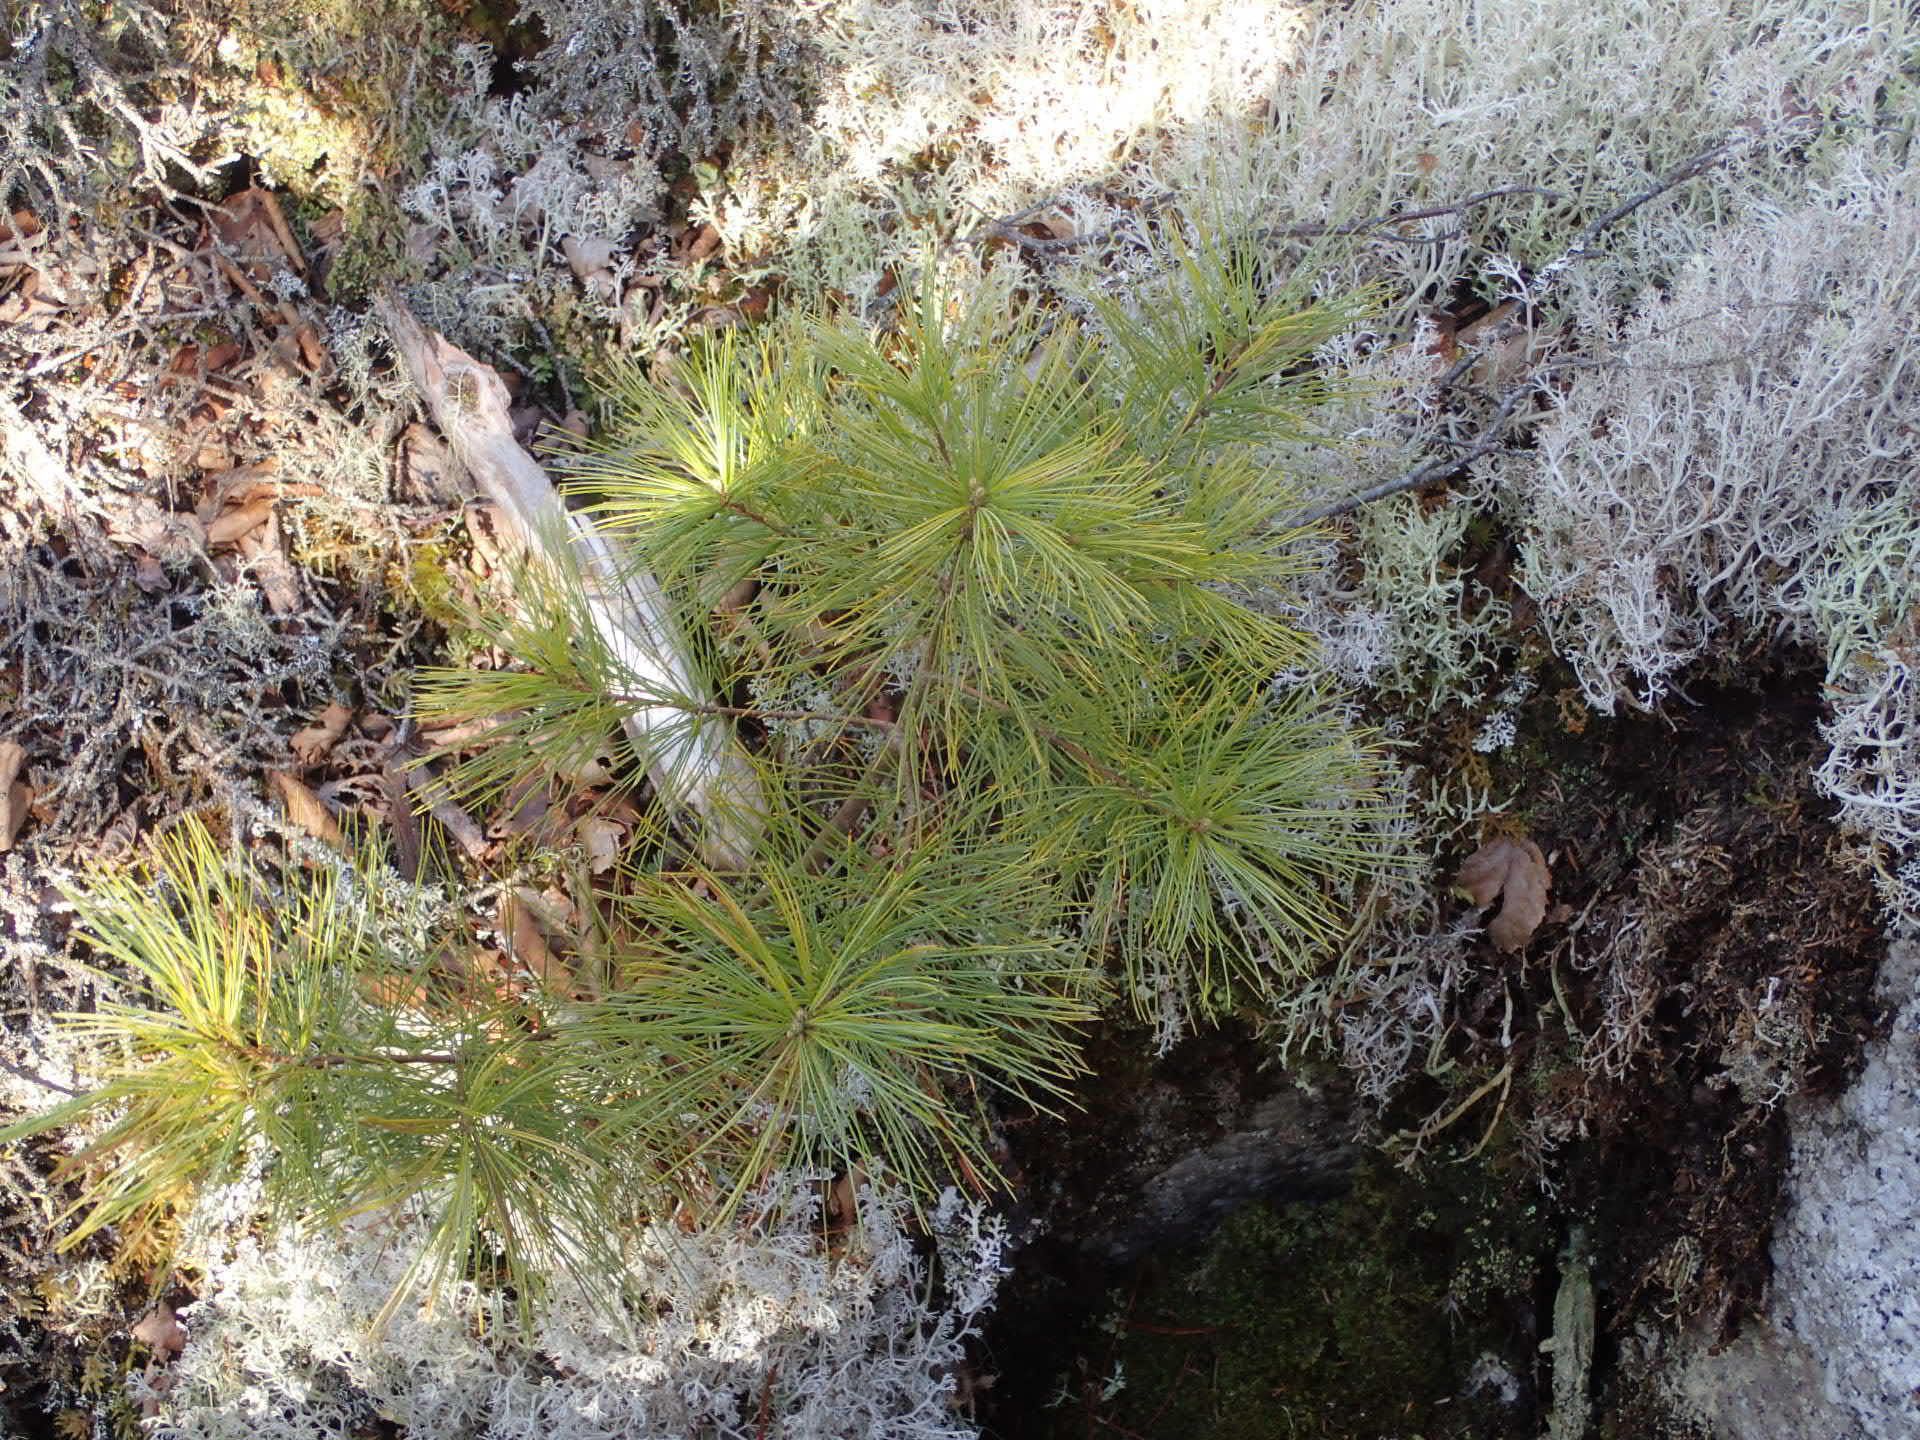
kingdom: Plantae
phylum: Tracheophyta
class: Pinopsida
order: Pinales
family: Pinaceae
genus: Pinus
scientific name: Pinus strobus
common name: Weymouth pine
